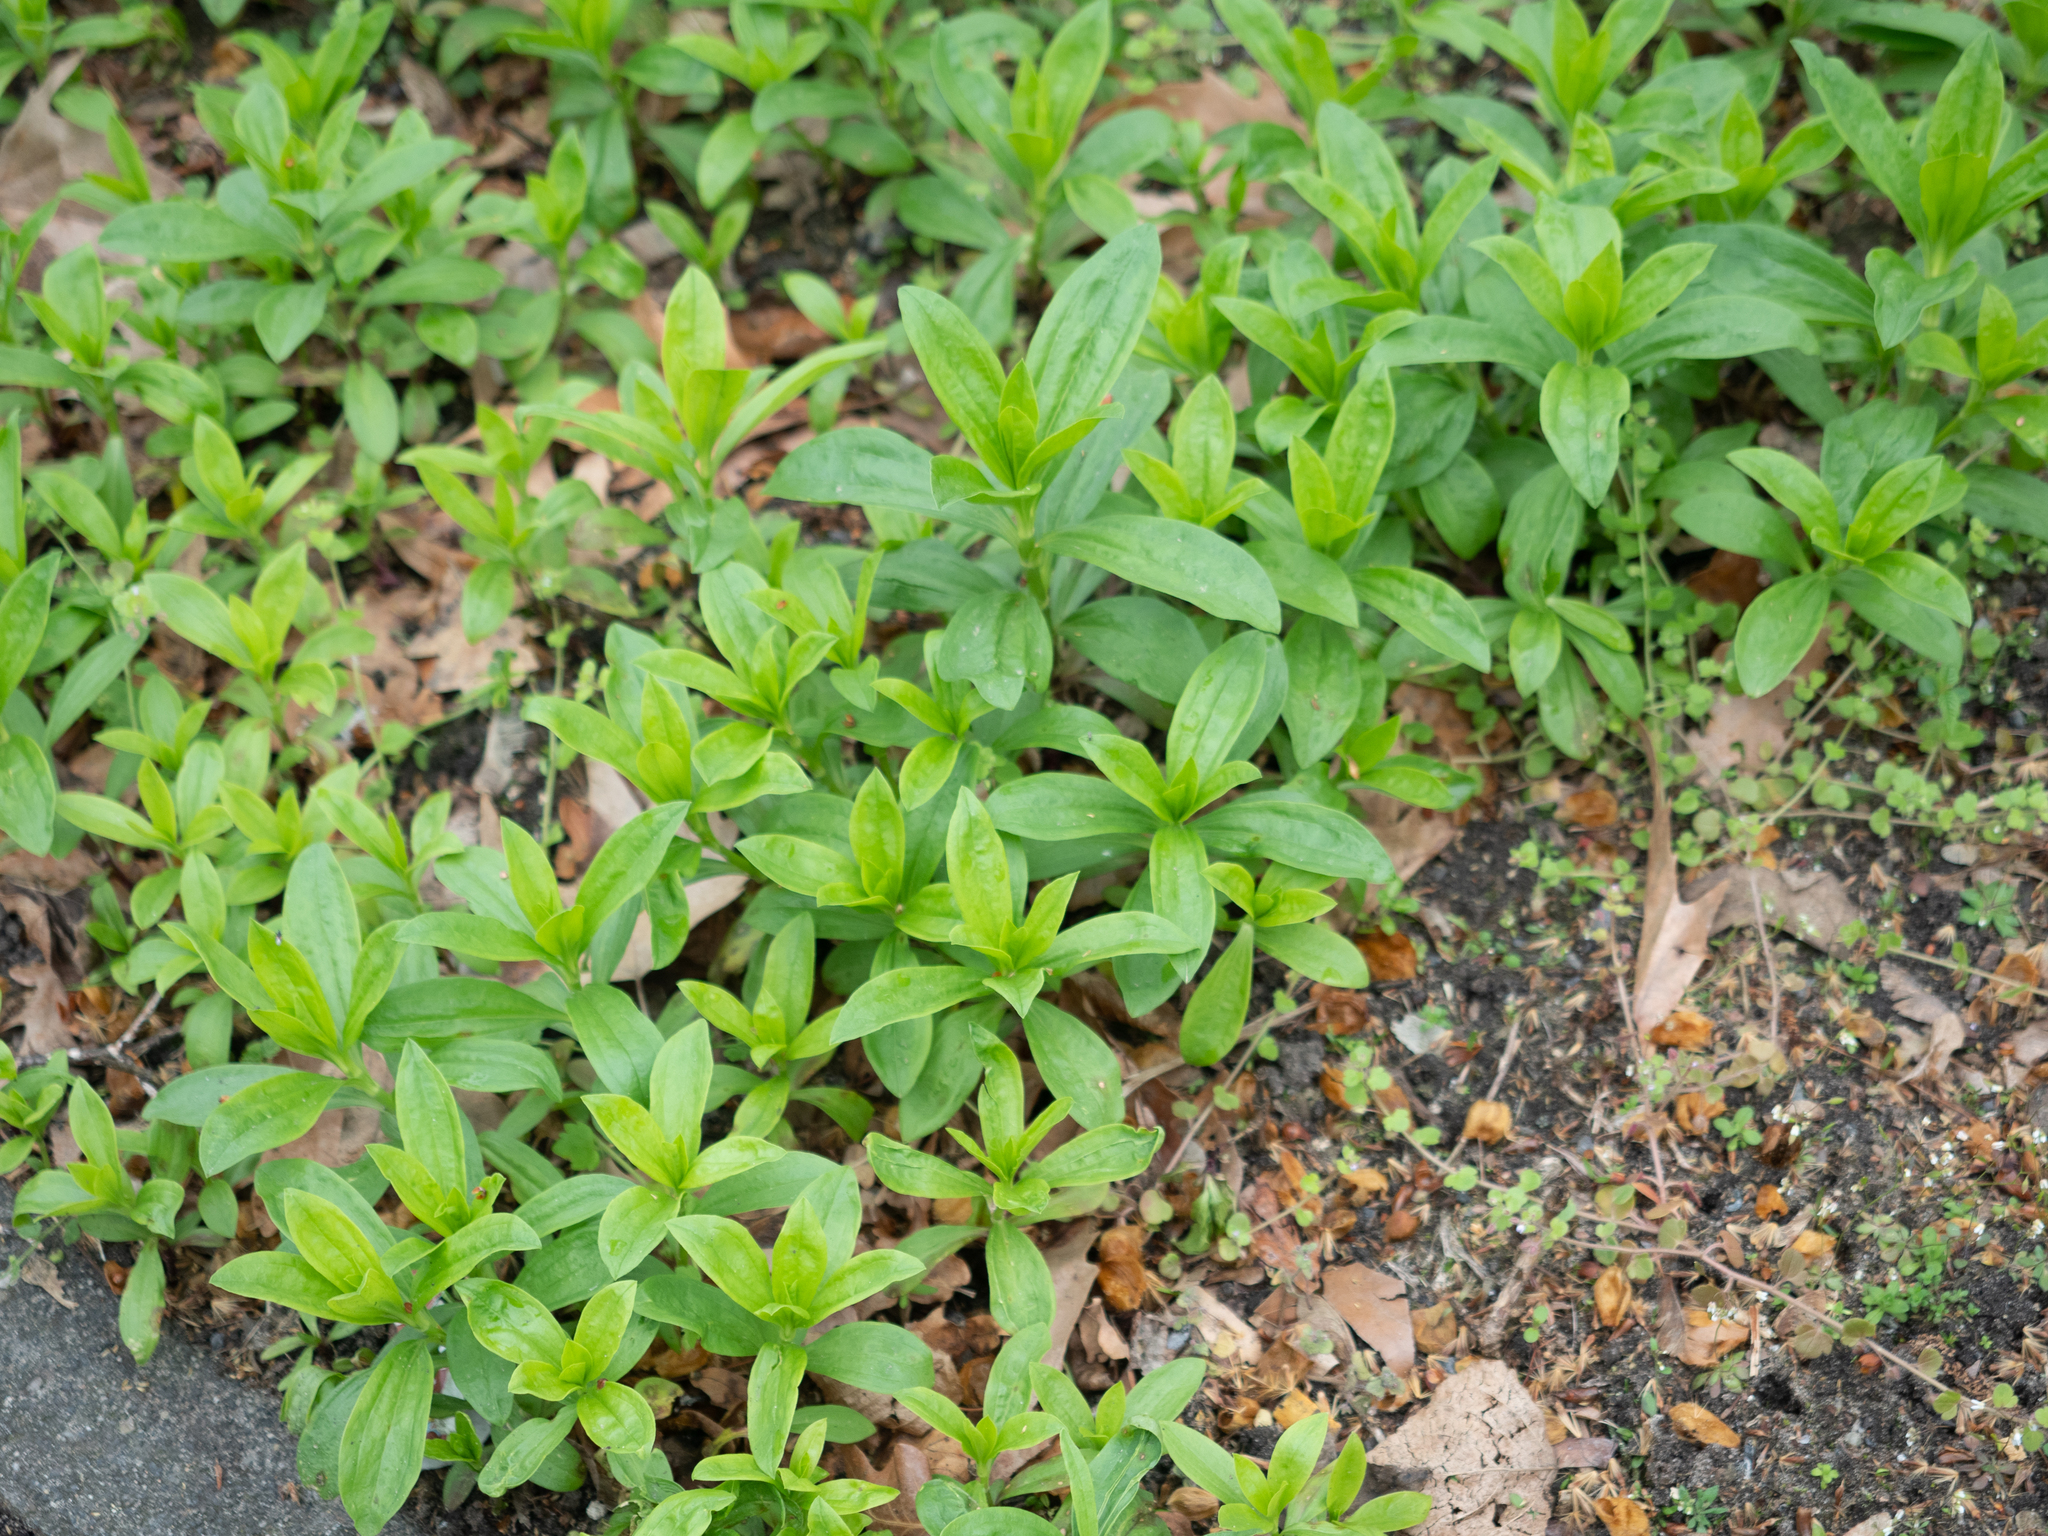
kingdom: Plantae
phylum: Tracheophyta
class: Magnoliopsida
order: Caryophyllales
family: Caryophyllaceae
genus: Saponaria
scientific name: Saponaria officinalis
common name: Soapwort
